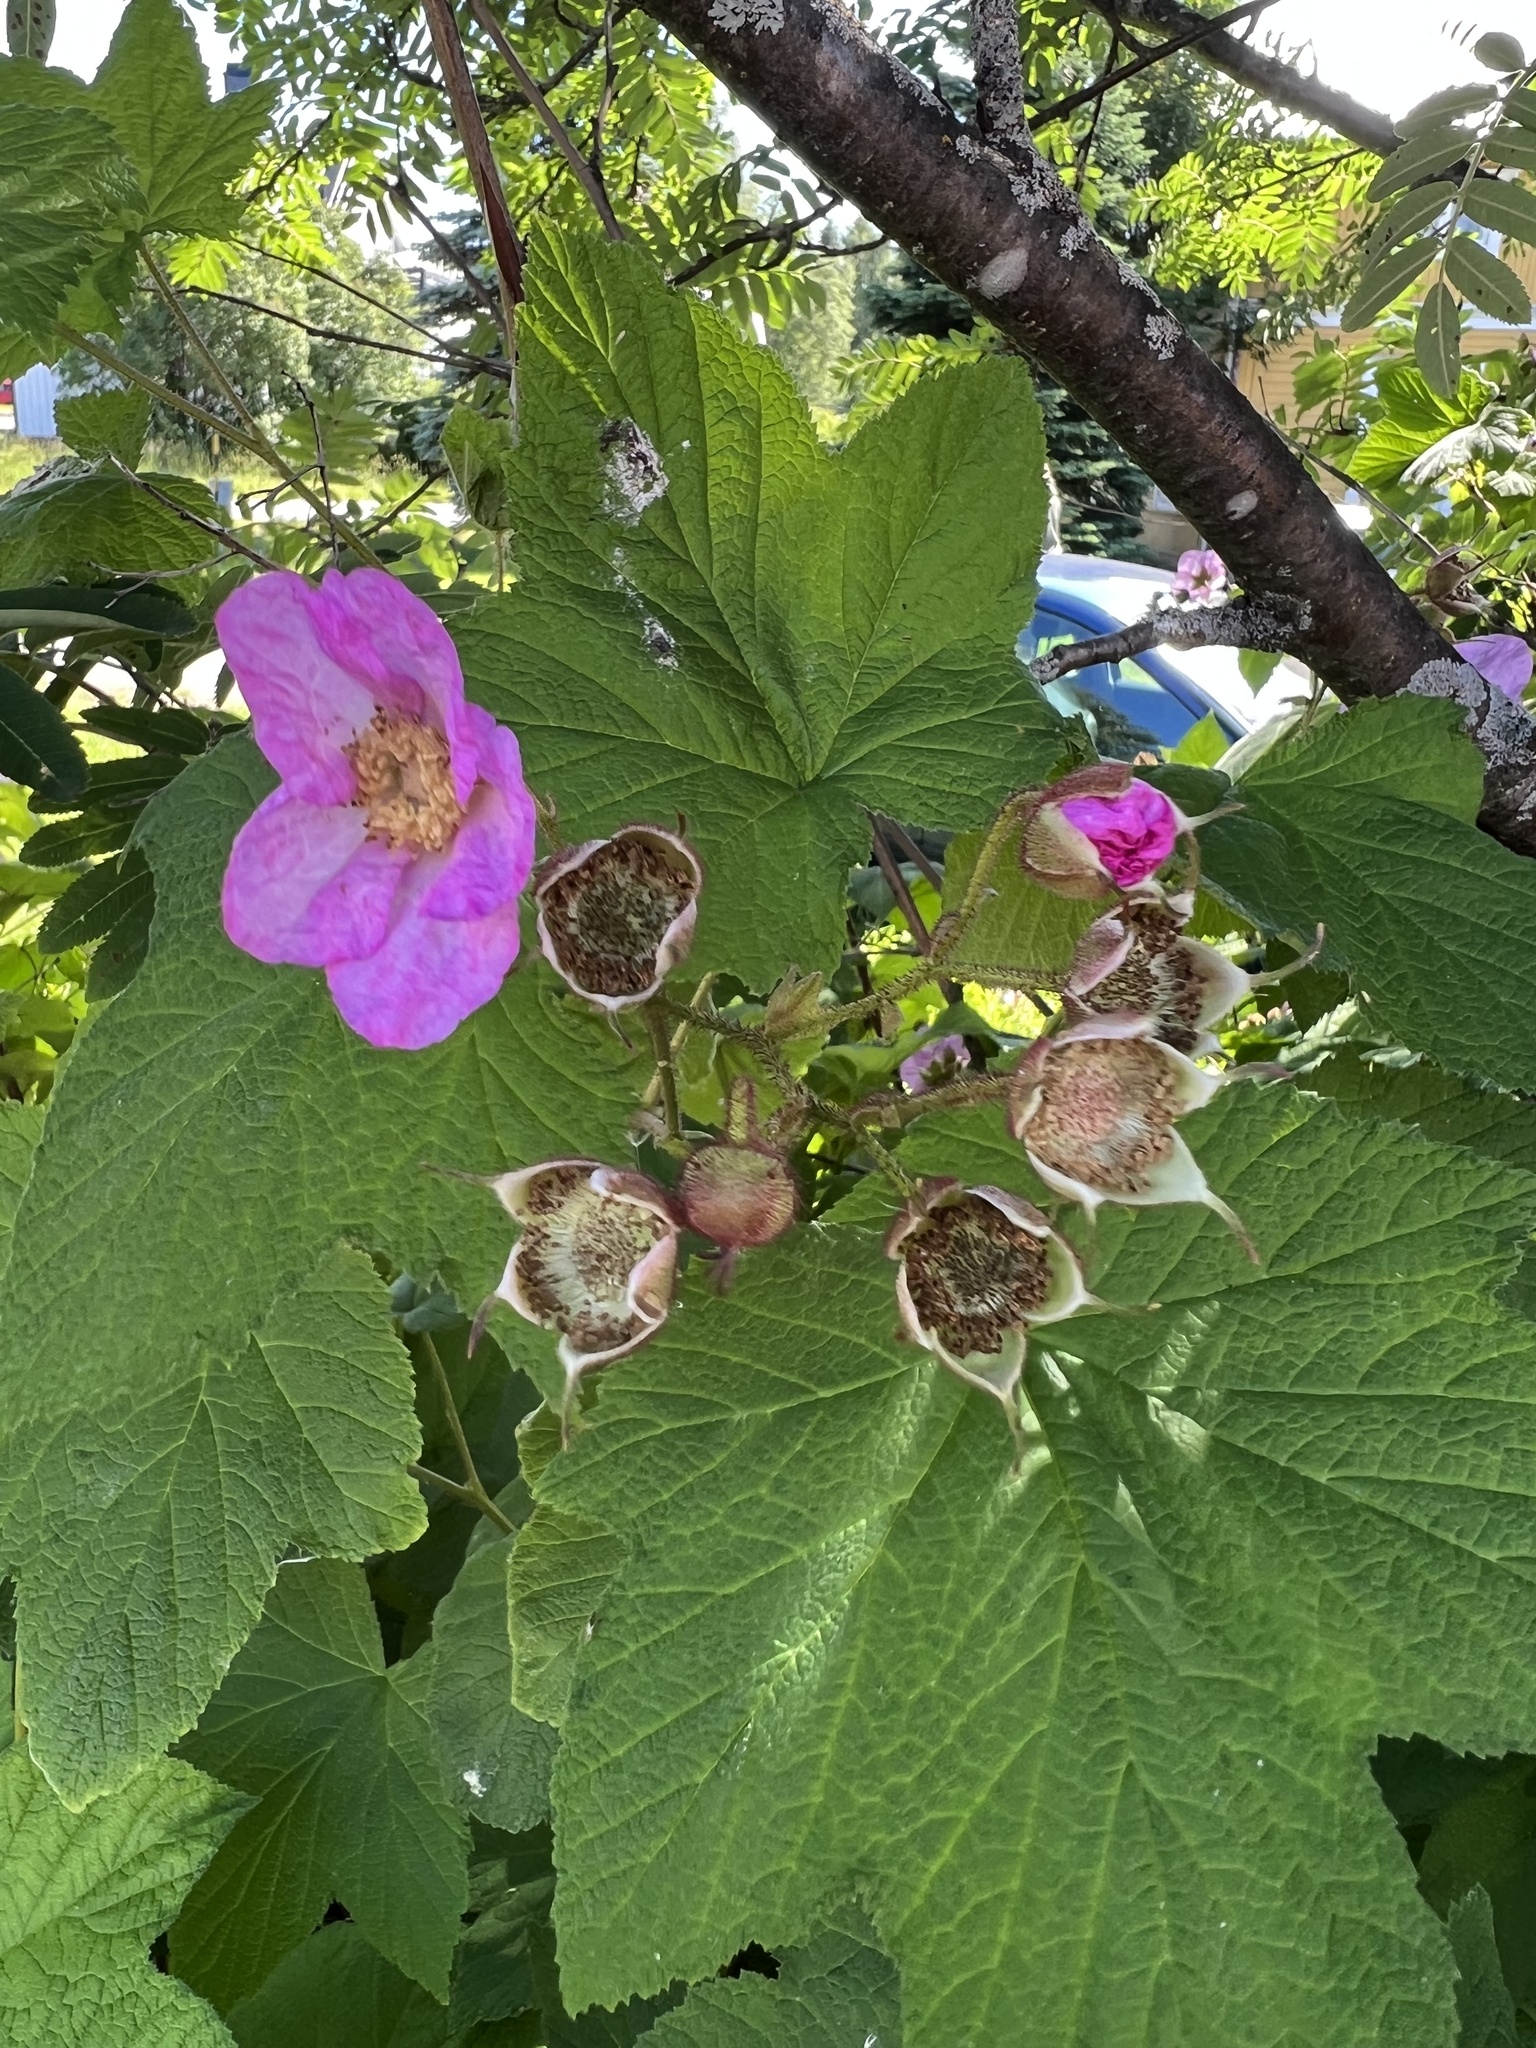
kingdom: Plantae
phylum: Tracheophyta
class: Magnoliopsida
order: Rosales
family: Rosaceae
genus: Rubus
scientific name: Rubus odoratus
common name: Purple-flowered raspberry
